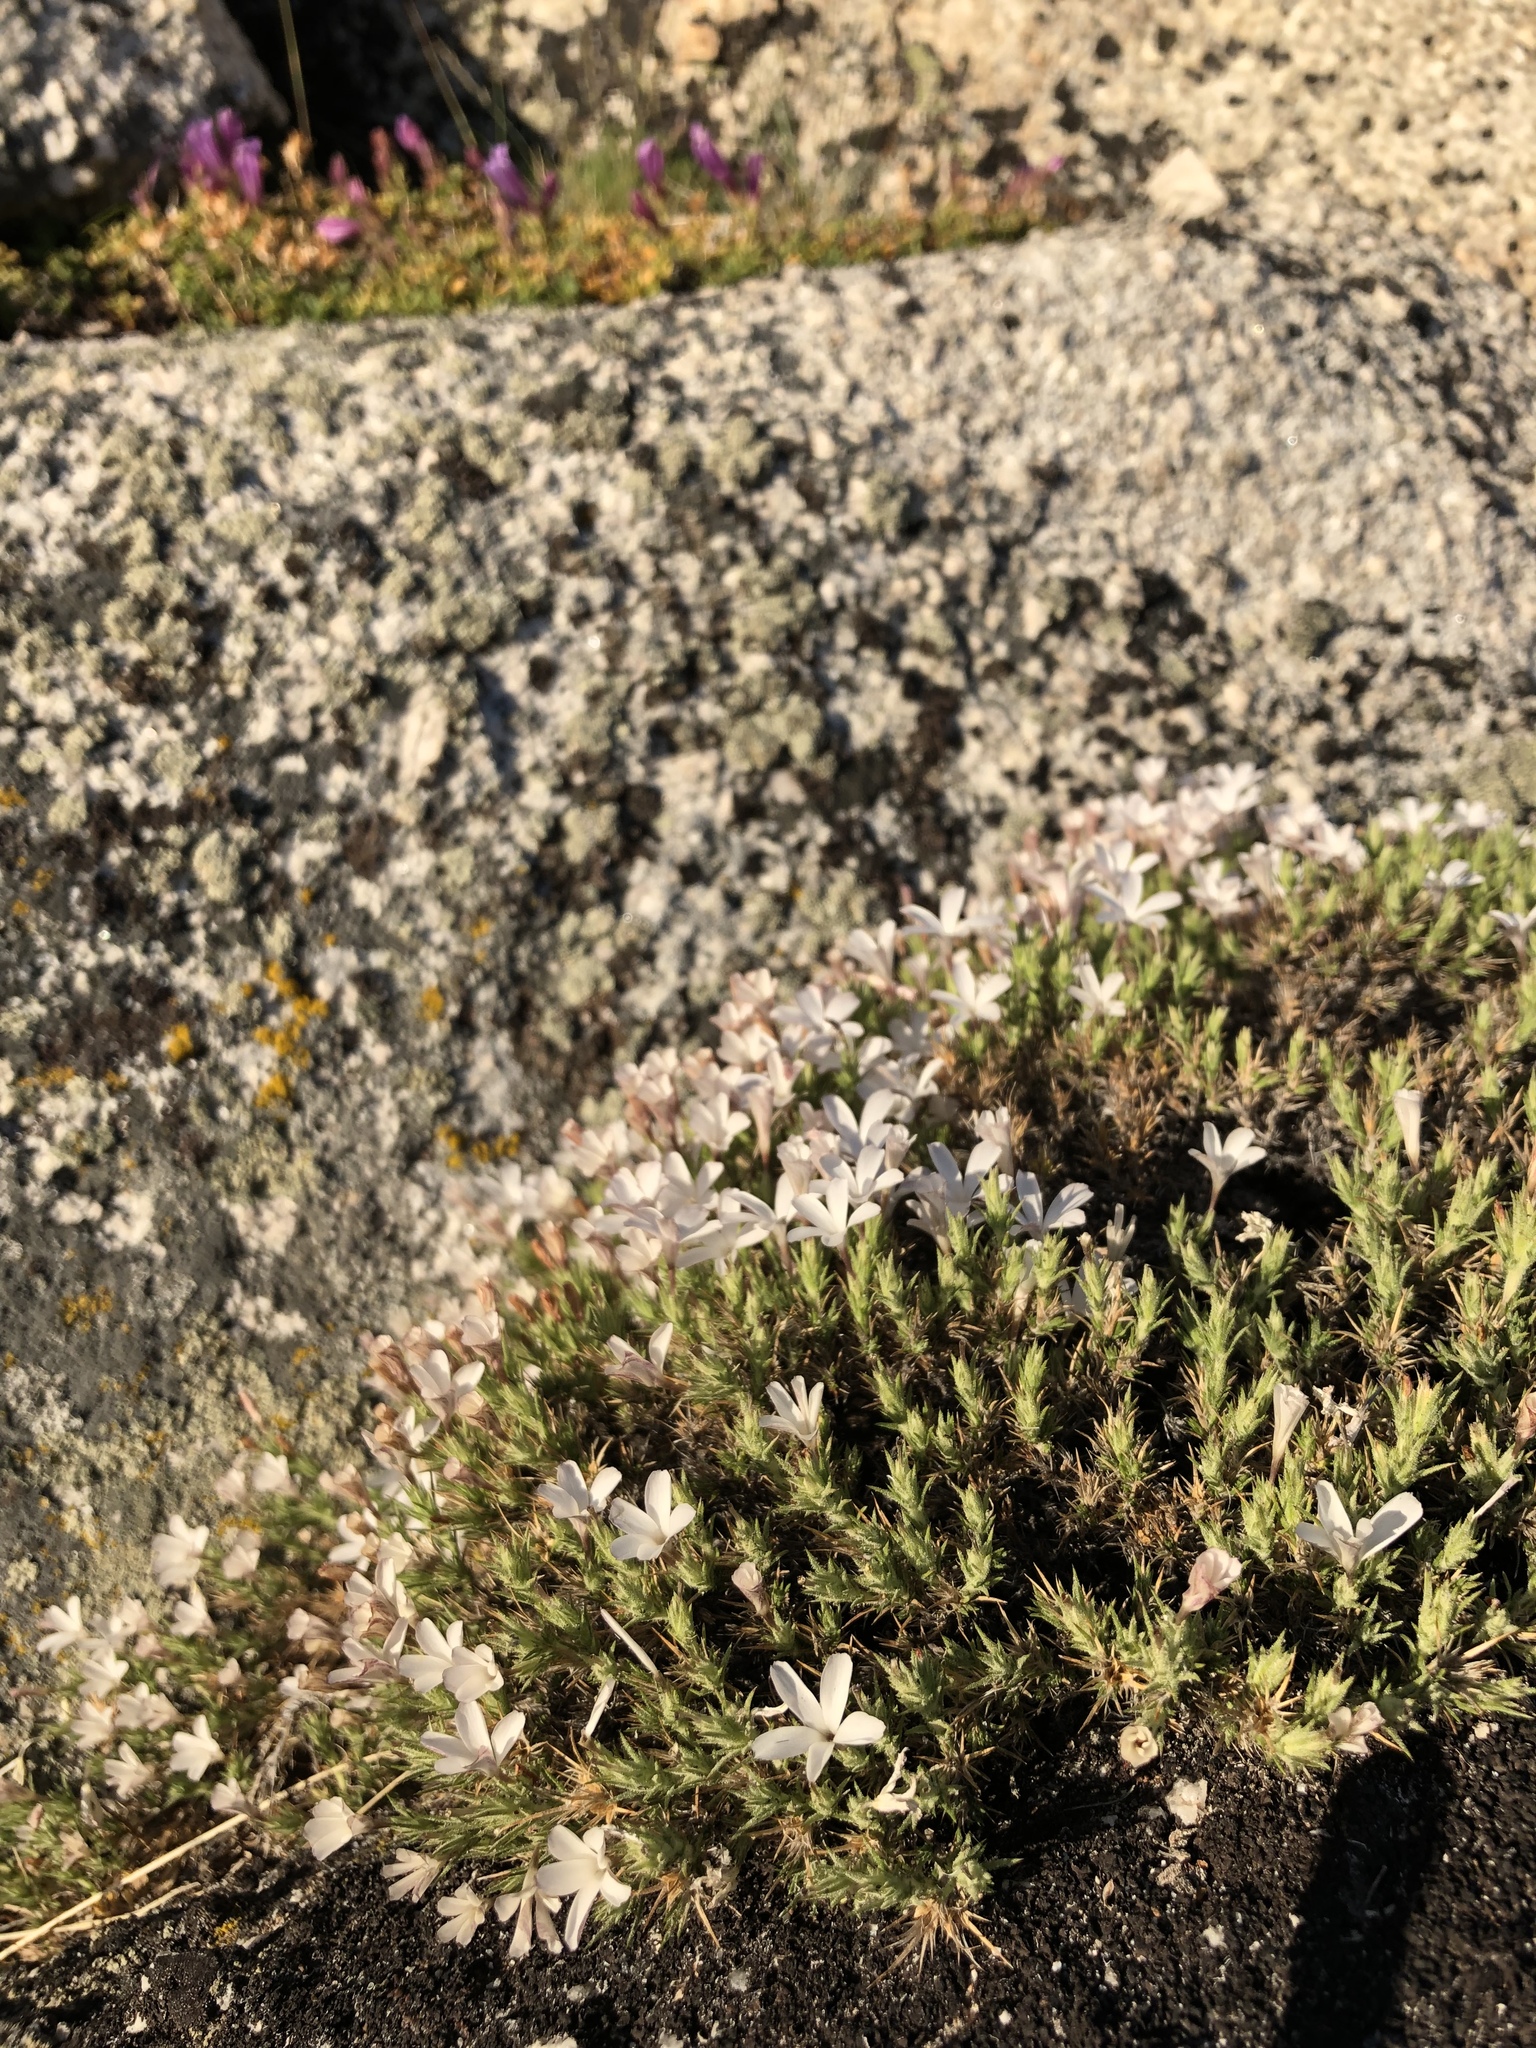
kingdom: Plantae
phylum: Tracheophyta
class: Magnoliopsida
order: Ericales
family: Polemoniaceae
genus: Linanthus
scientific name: Linanthus pungens
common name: Granite prickly phlox
